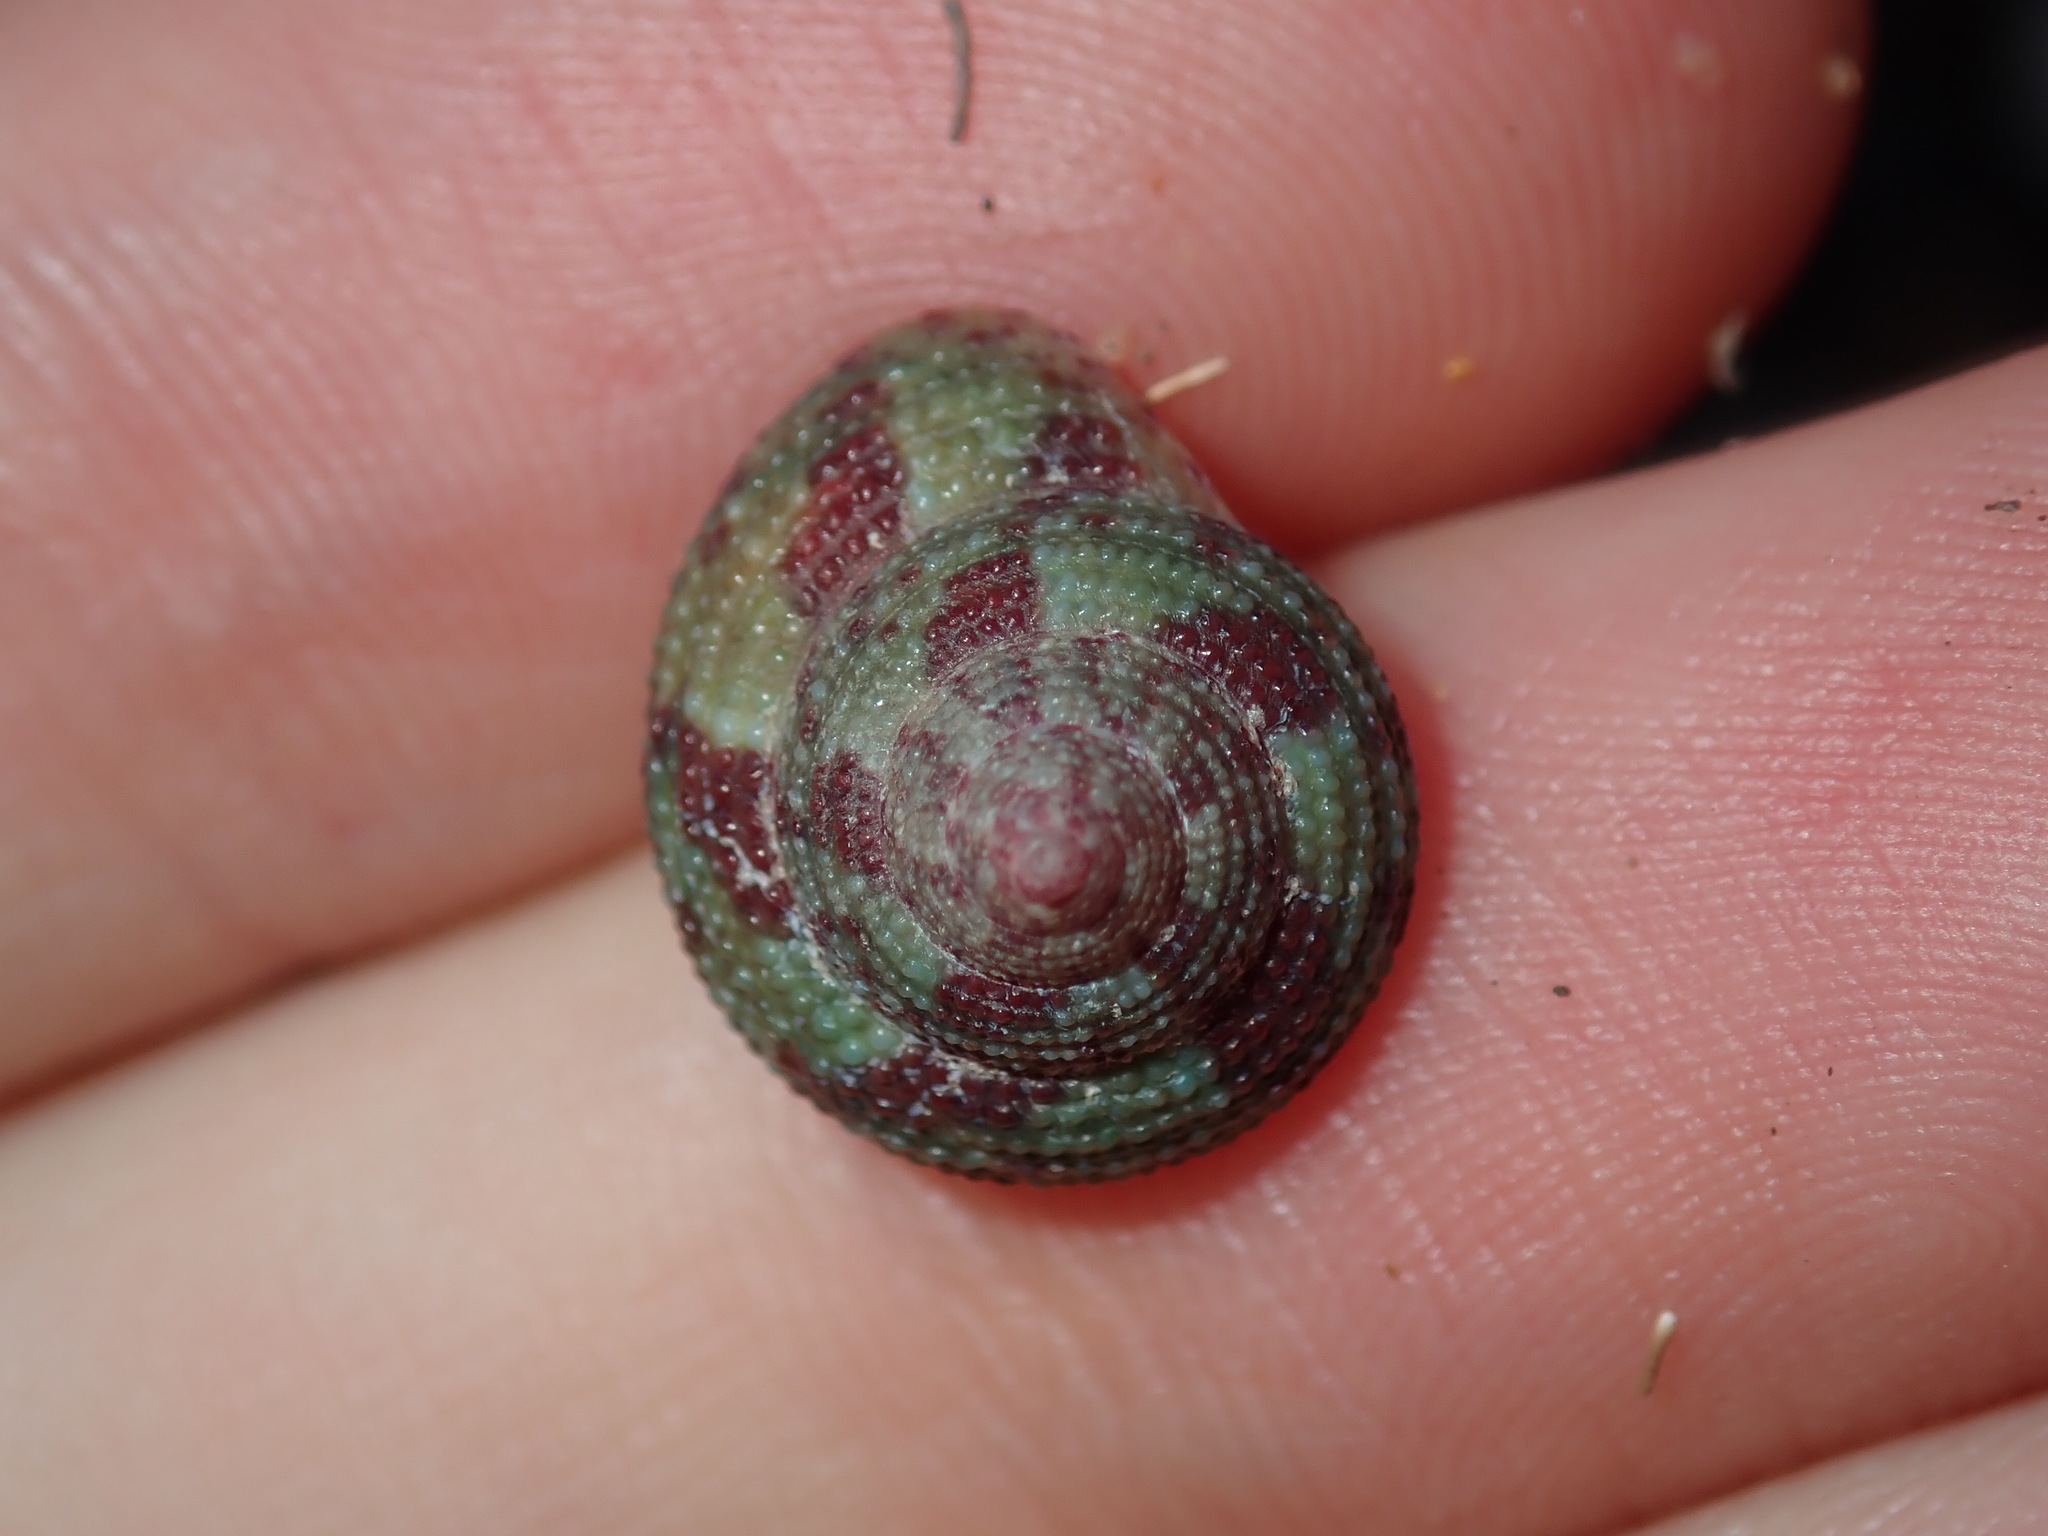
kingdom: Animalia
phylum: Mollusca
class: Gastropoda
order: Trochida
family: Trochidae
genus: Clanculus
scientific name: Clanculus clangulus
